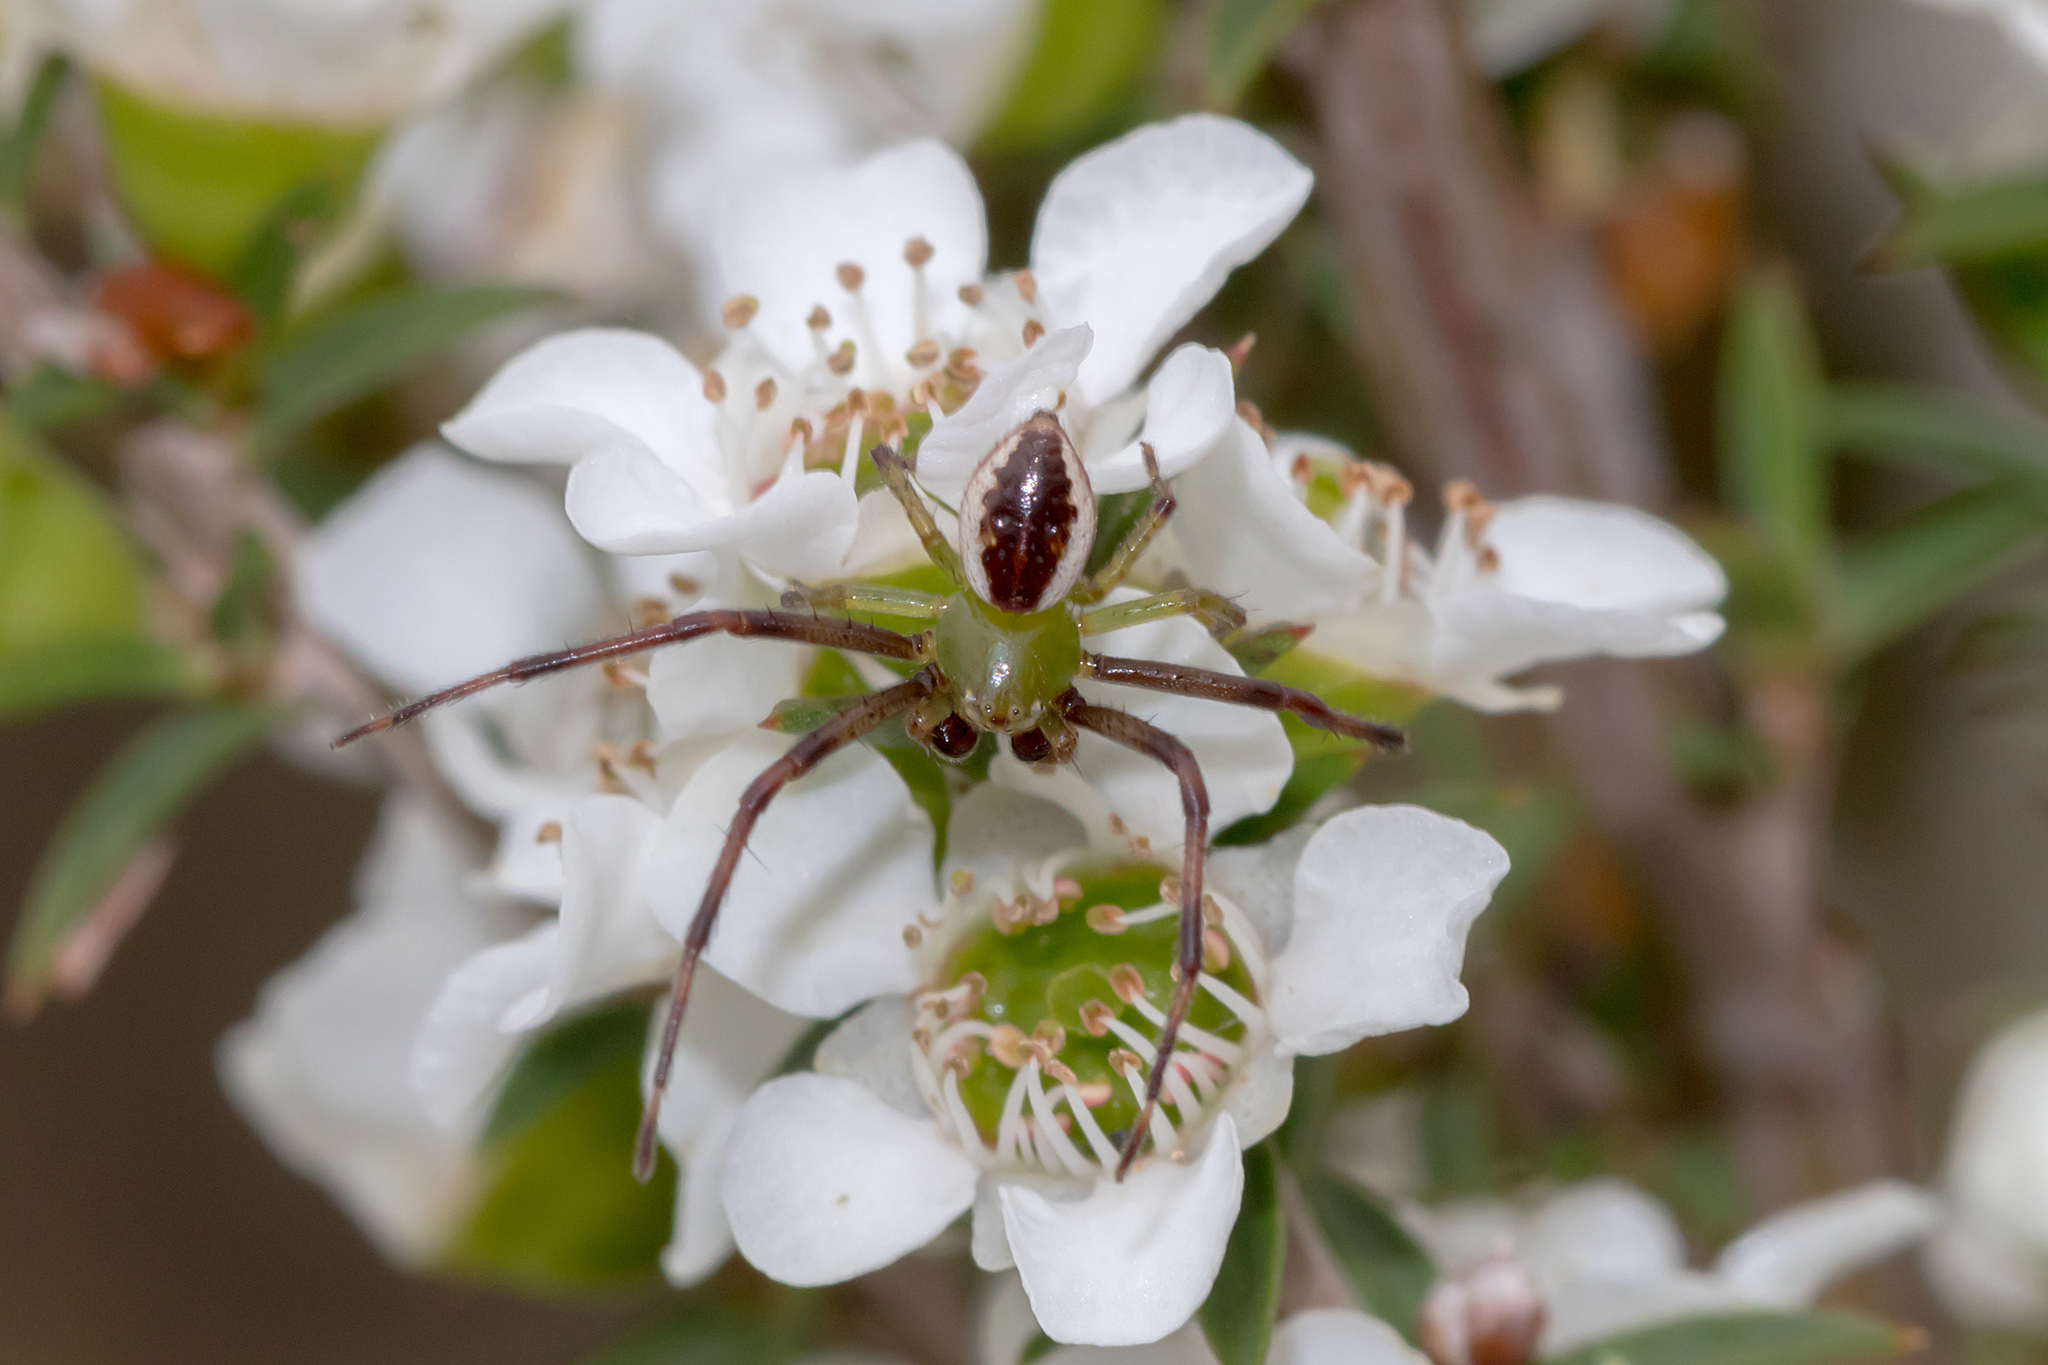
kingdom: Animalia
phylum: Arthropoda
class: Arachnida
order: Araneae
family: Thomisidae
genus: Australomisidia
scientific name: Australomisidia pilula
